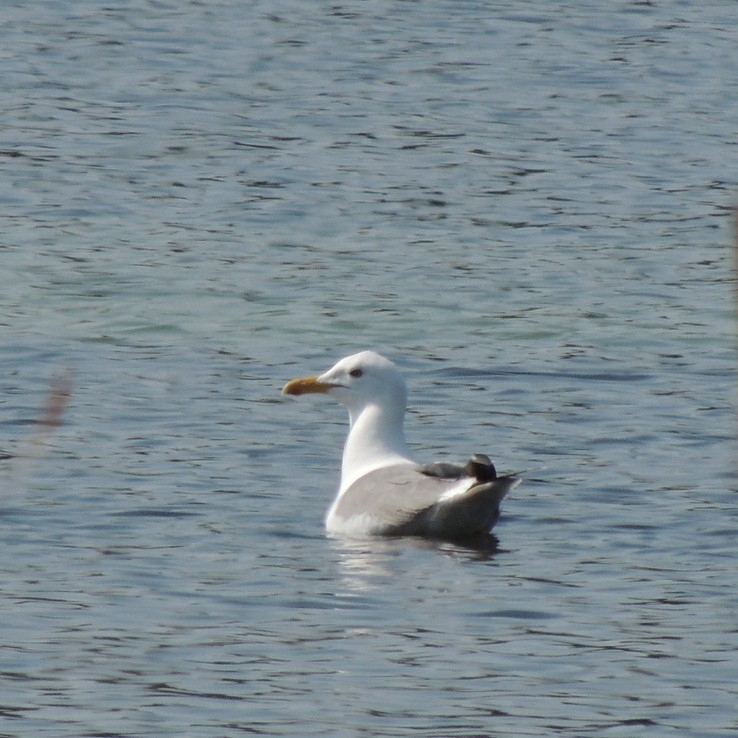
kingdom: Animalia
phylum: Chordata
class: Aves
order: Charadriiformes
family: Laridae
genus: Larus
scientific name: Larus fuscus
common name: Lesser black-backed gull
